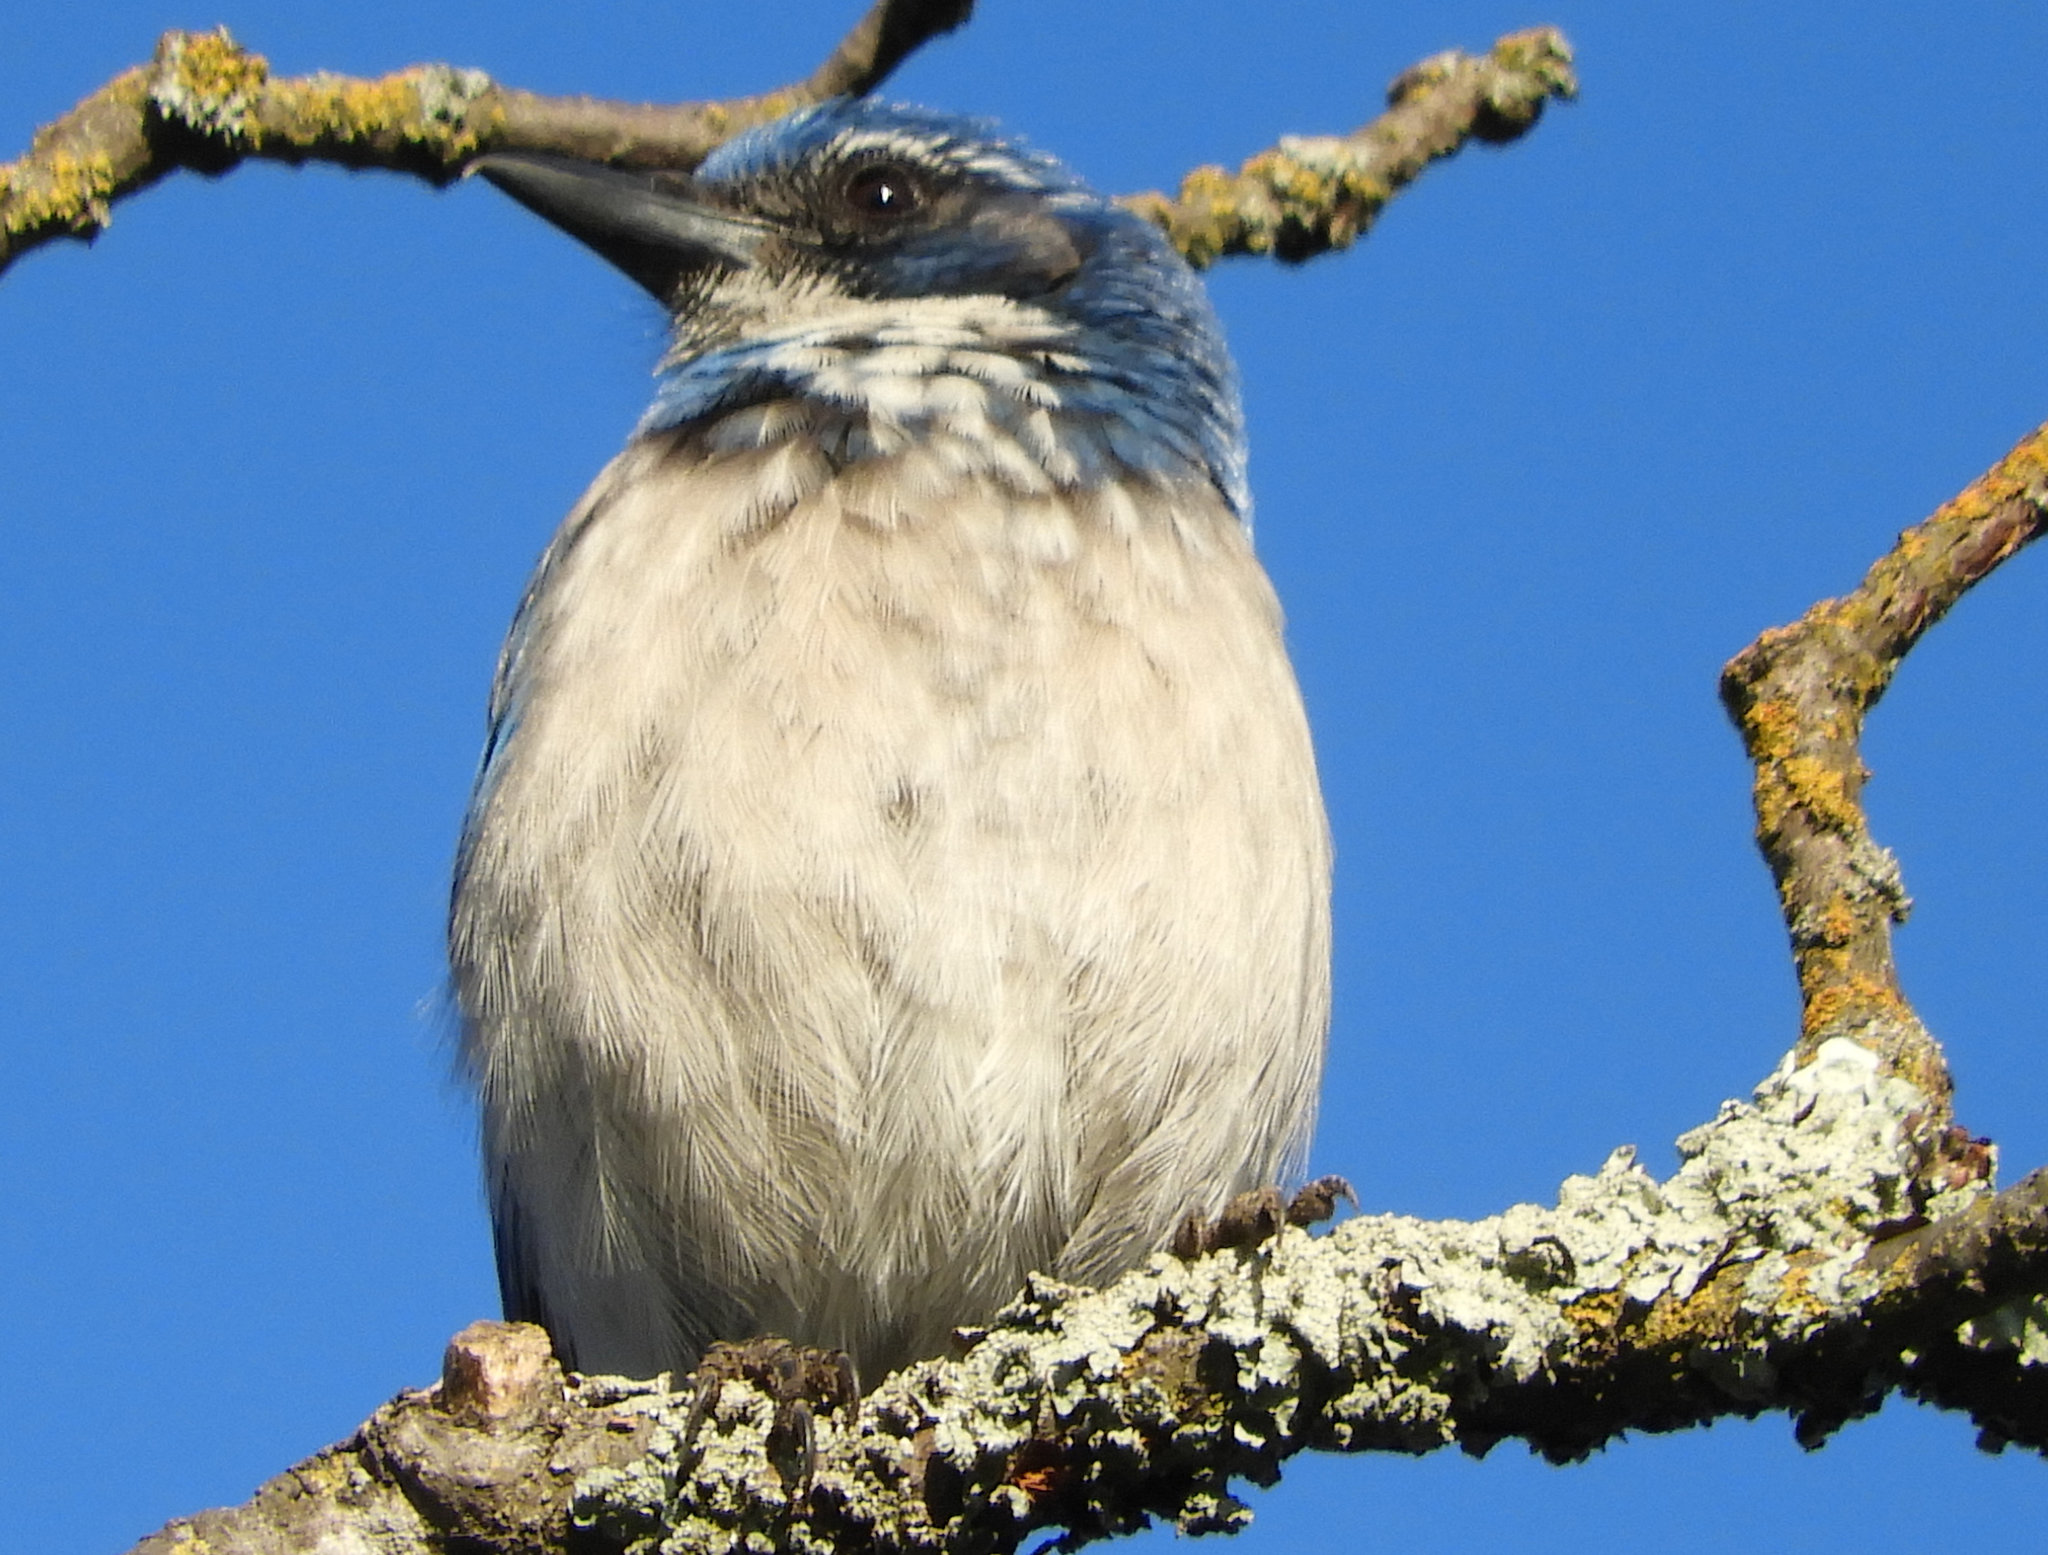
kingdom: Animalia
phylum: Chordata
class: Aves
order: Passeriformes
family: Corvidae
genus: Aphelocoma
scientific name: Aphelocoma californica
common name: California scrub-jay
